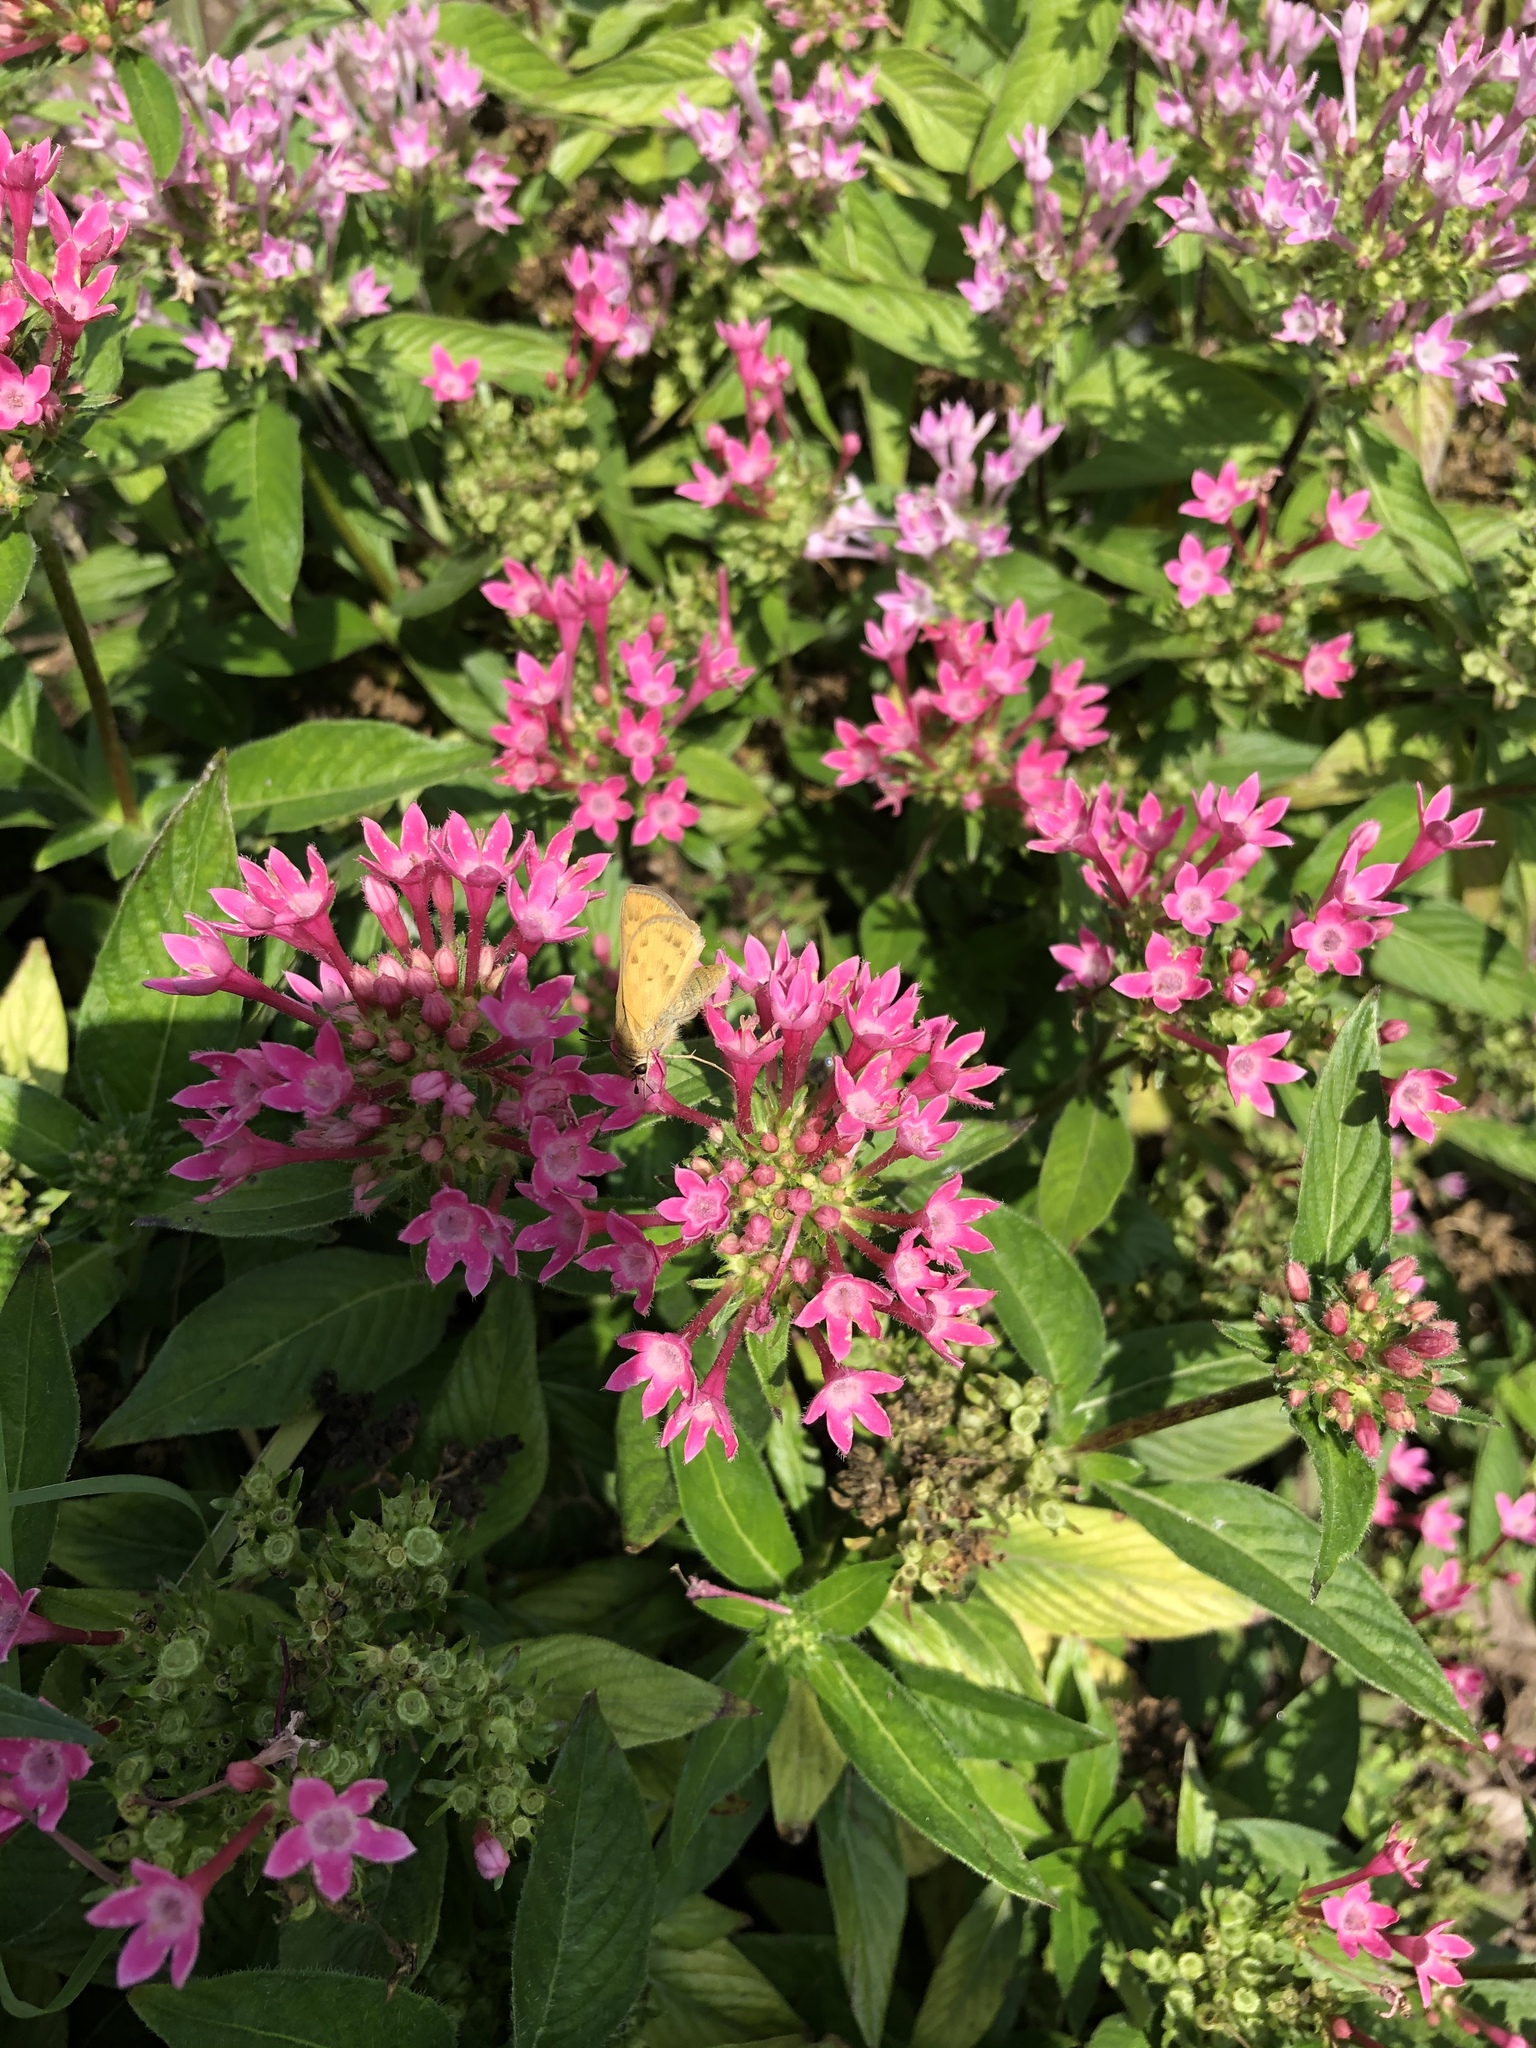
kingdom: Animalia
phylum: Arthropoda
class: Insecta
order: Lepidoptera
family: Hesperiidae
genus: Hylephila
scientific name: Hylephila phyleus
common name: Fiery skipper
